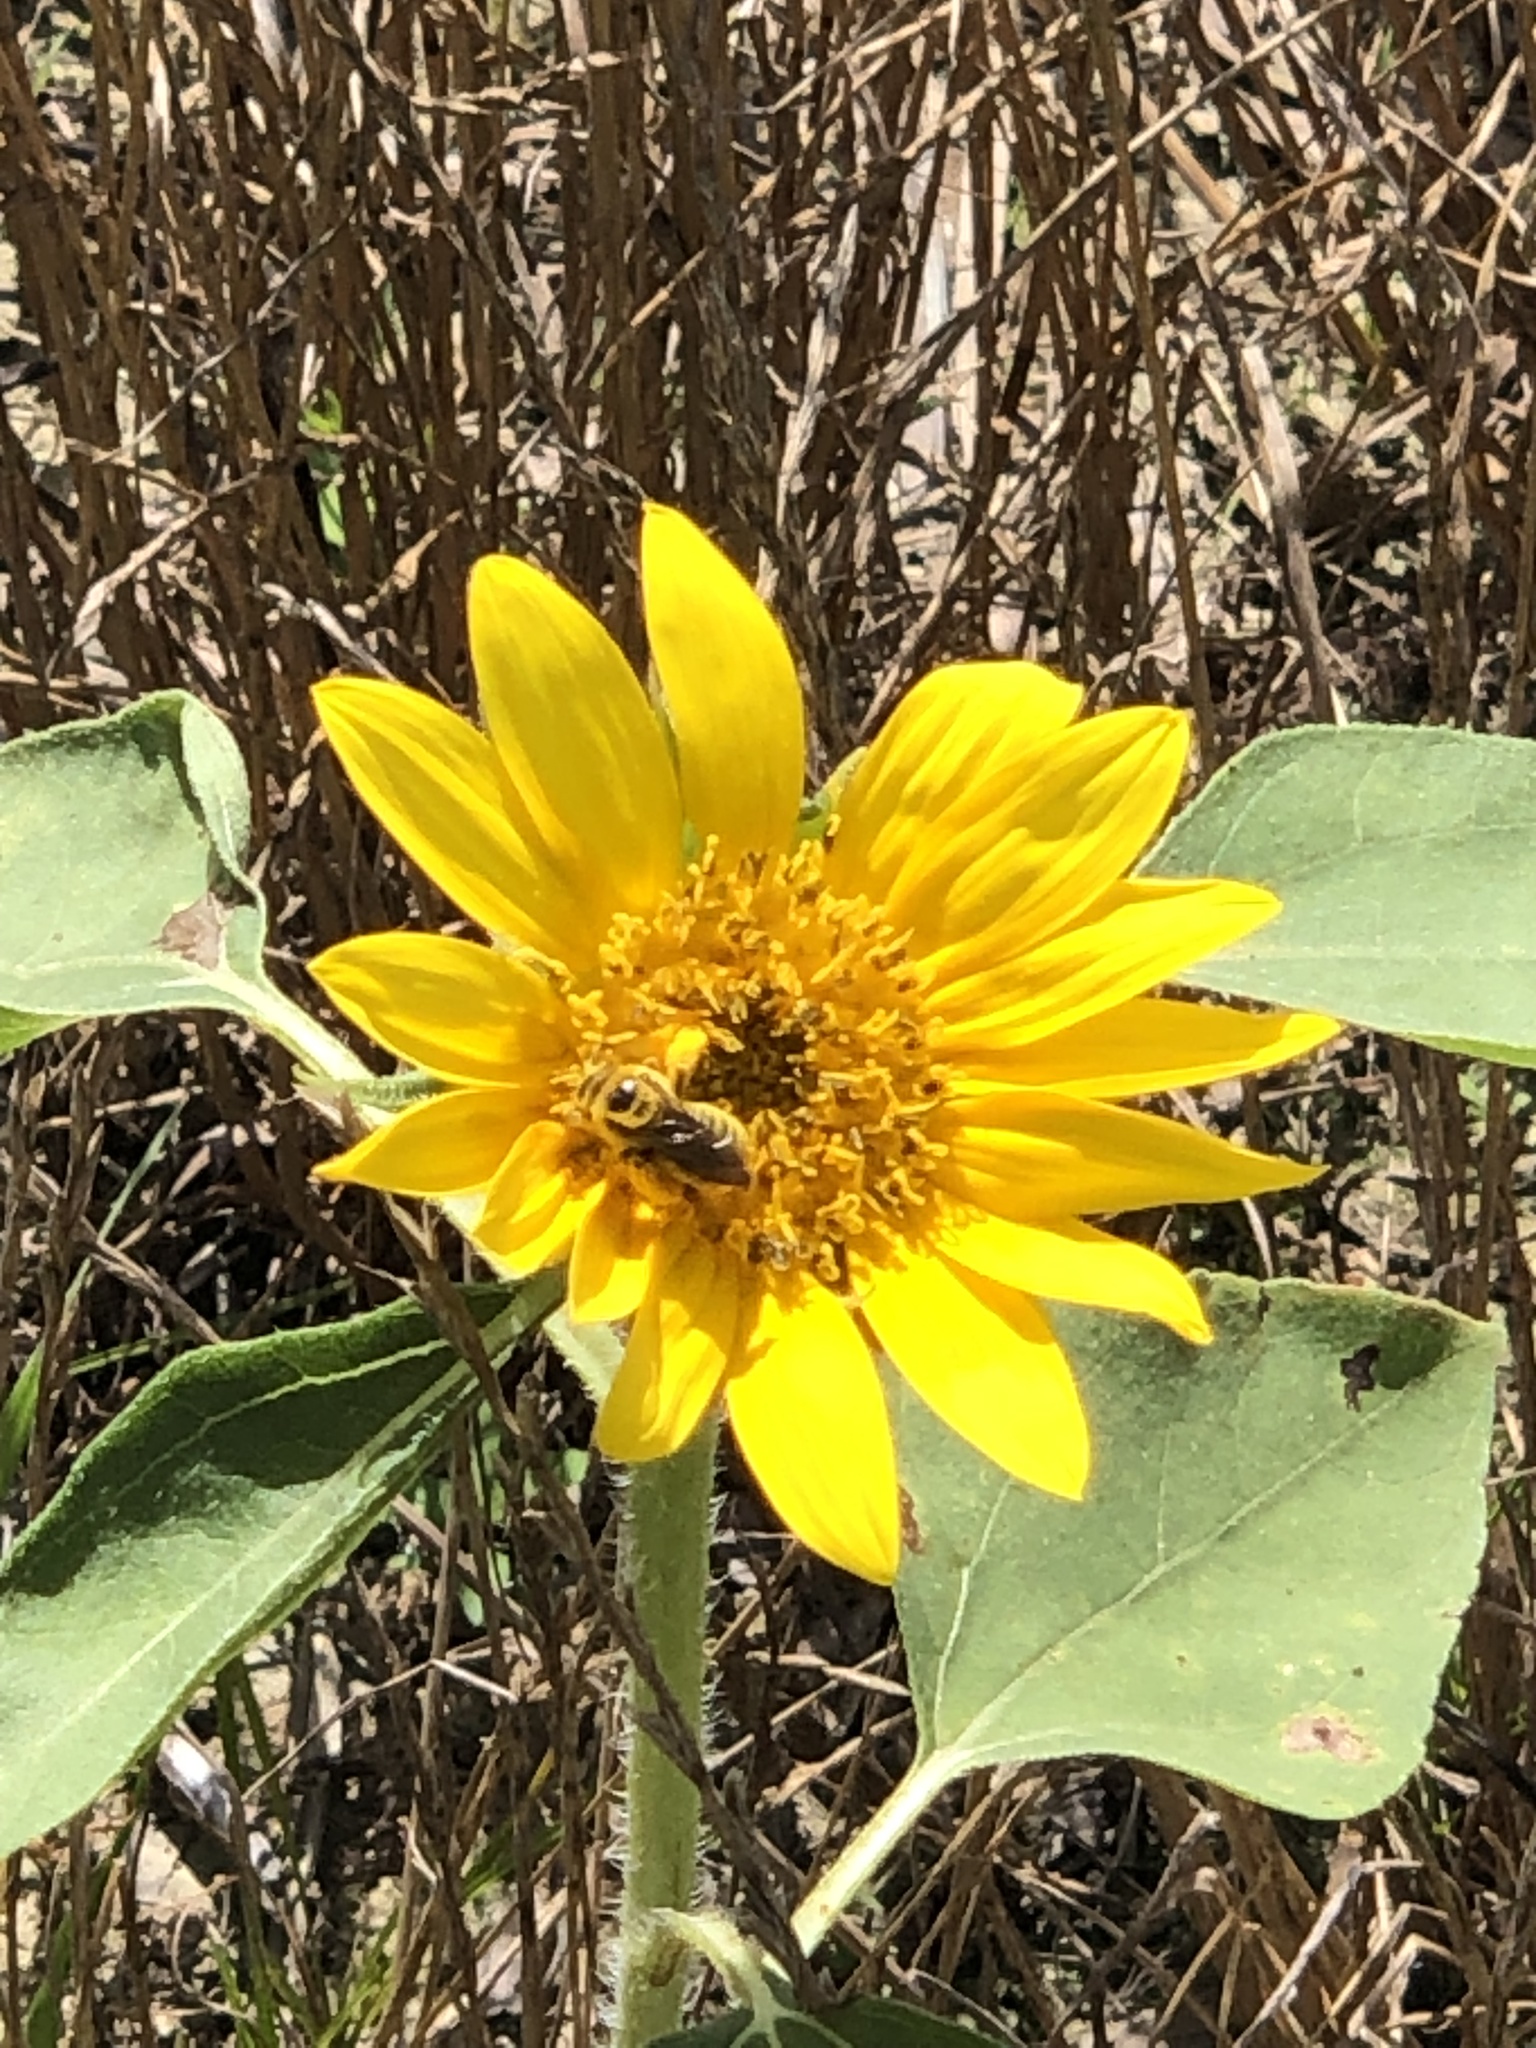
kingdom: Animalia
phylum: Arthropoda
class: Insecta
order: Hymenoptera
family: Apidae
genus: Diadasia
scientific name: Diadasia enavata
